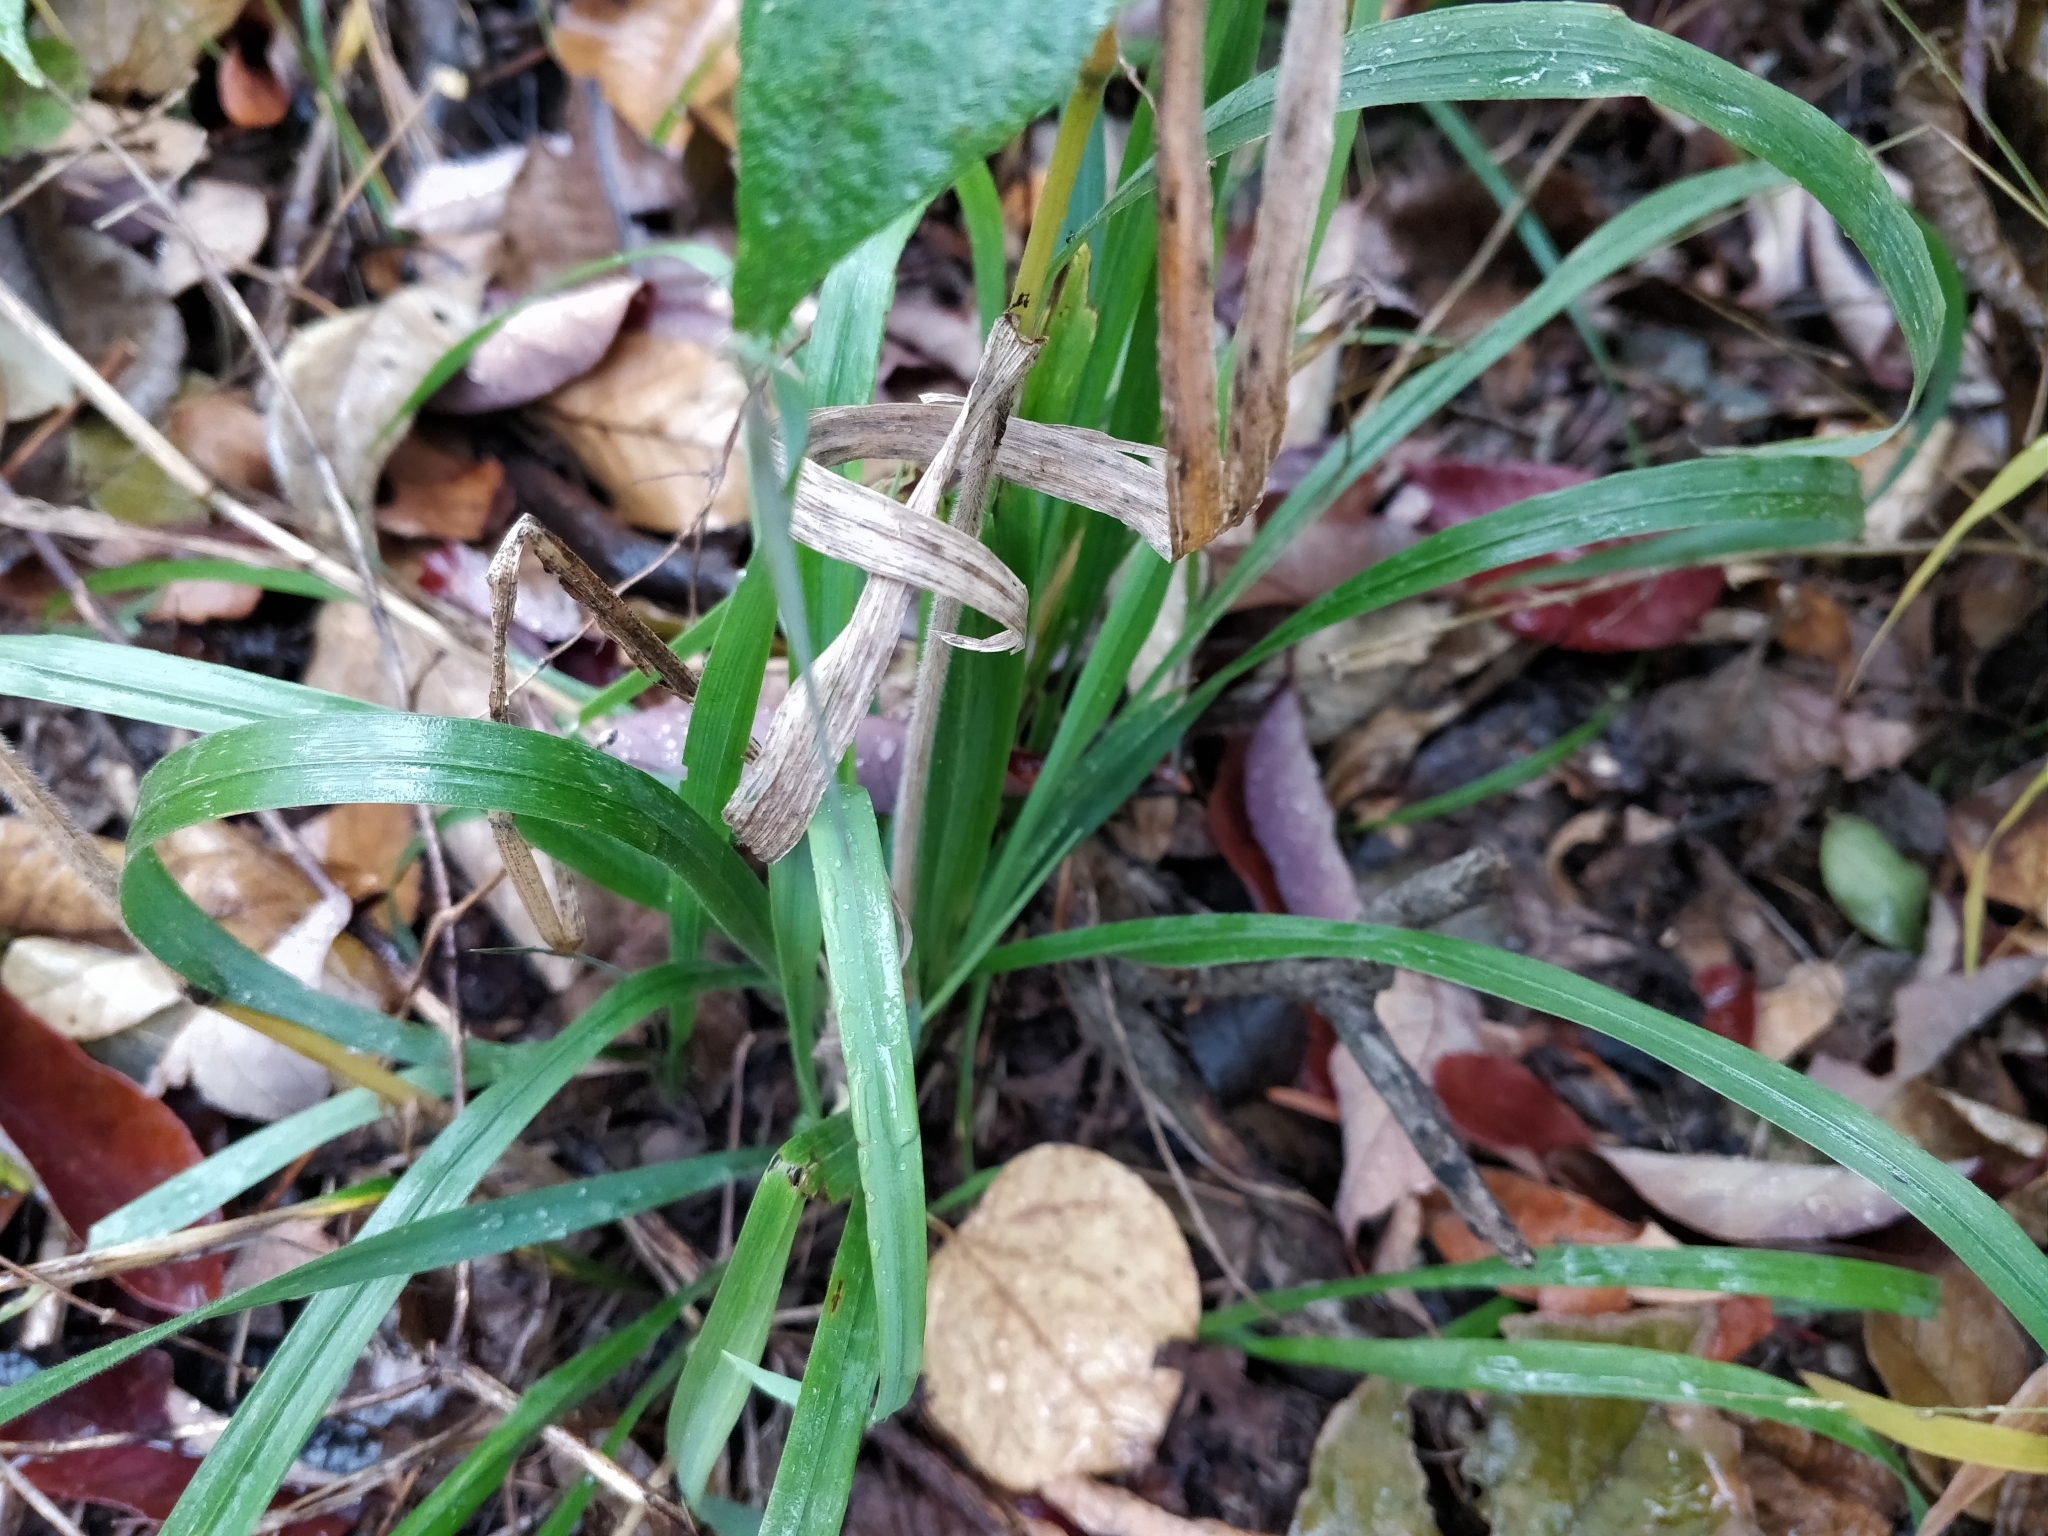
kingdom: Plantae
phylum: Tracheophyta
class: Liliopsida
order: Poales
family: Poaceae
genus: Bromus
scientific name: Bromus pubescens
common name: Hairy wood brome grass
